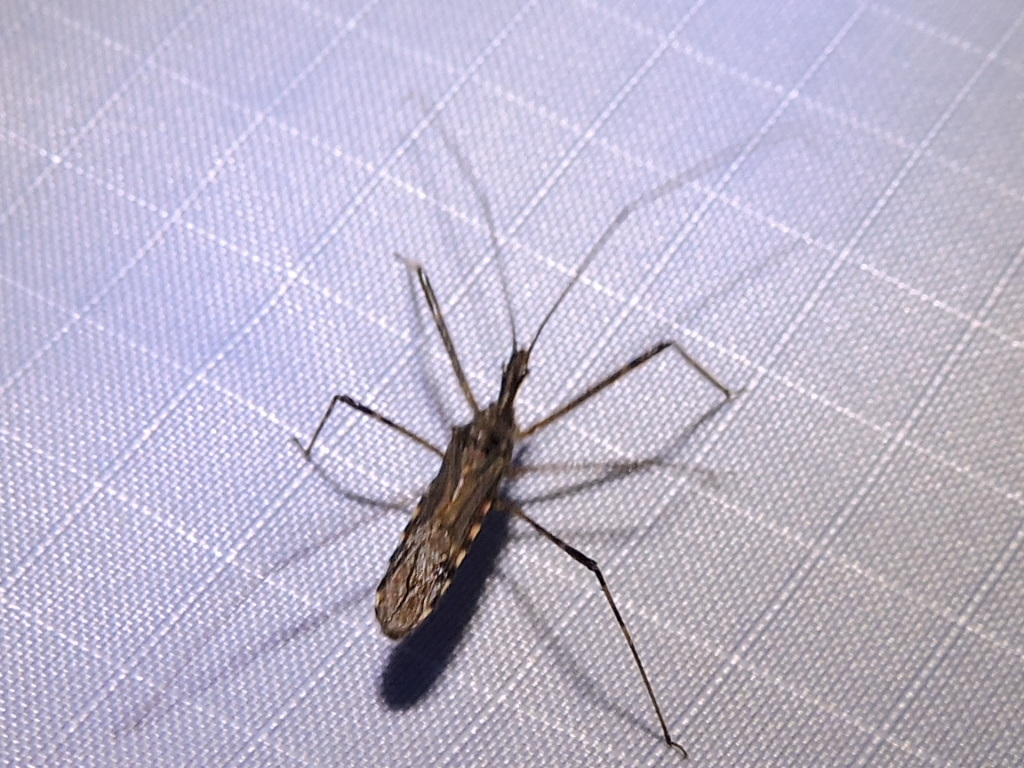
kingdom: Animalia
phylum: Arthropoda
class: Insecta
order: Hemiptera
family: Reduviidae
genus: Zelus
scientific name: Zelus tetracanthus
